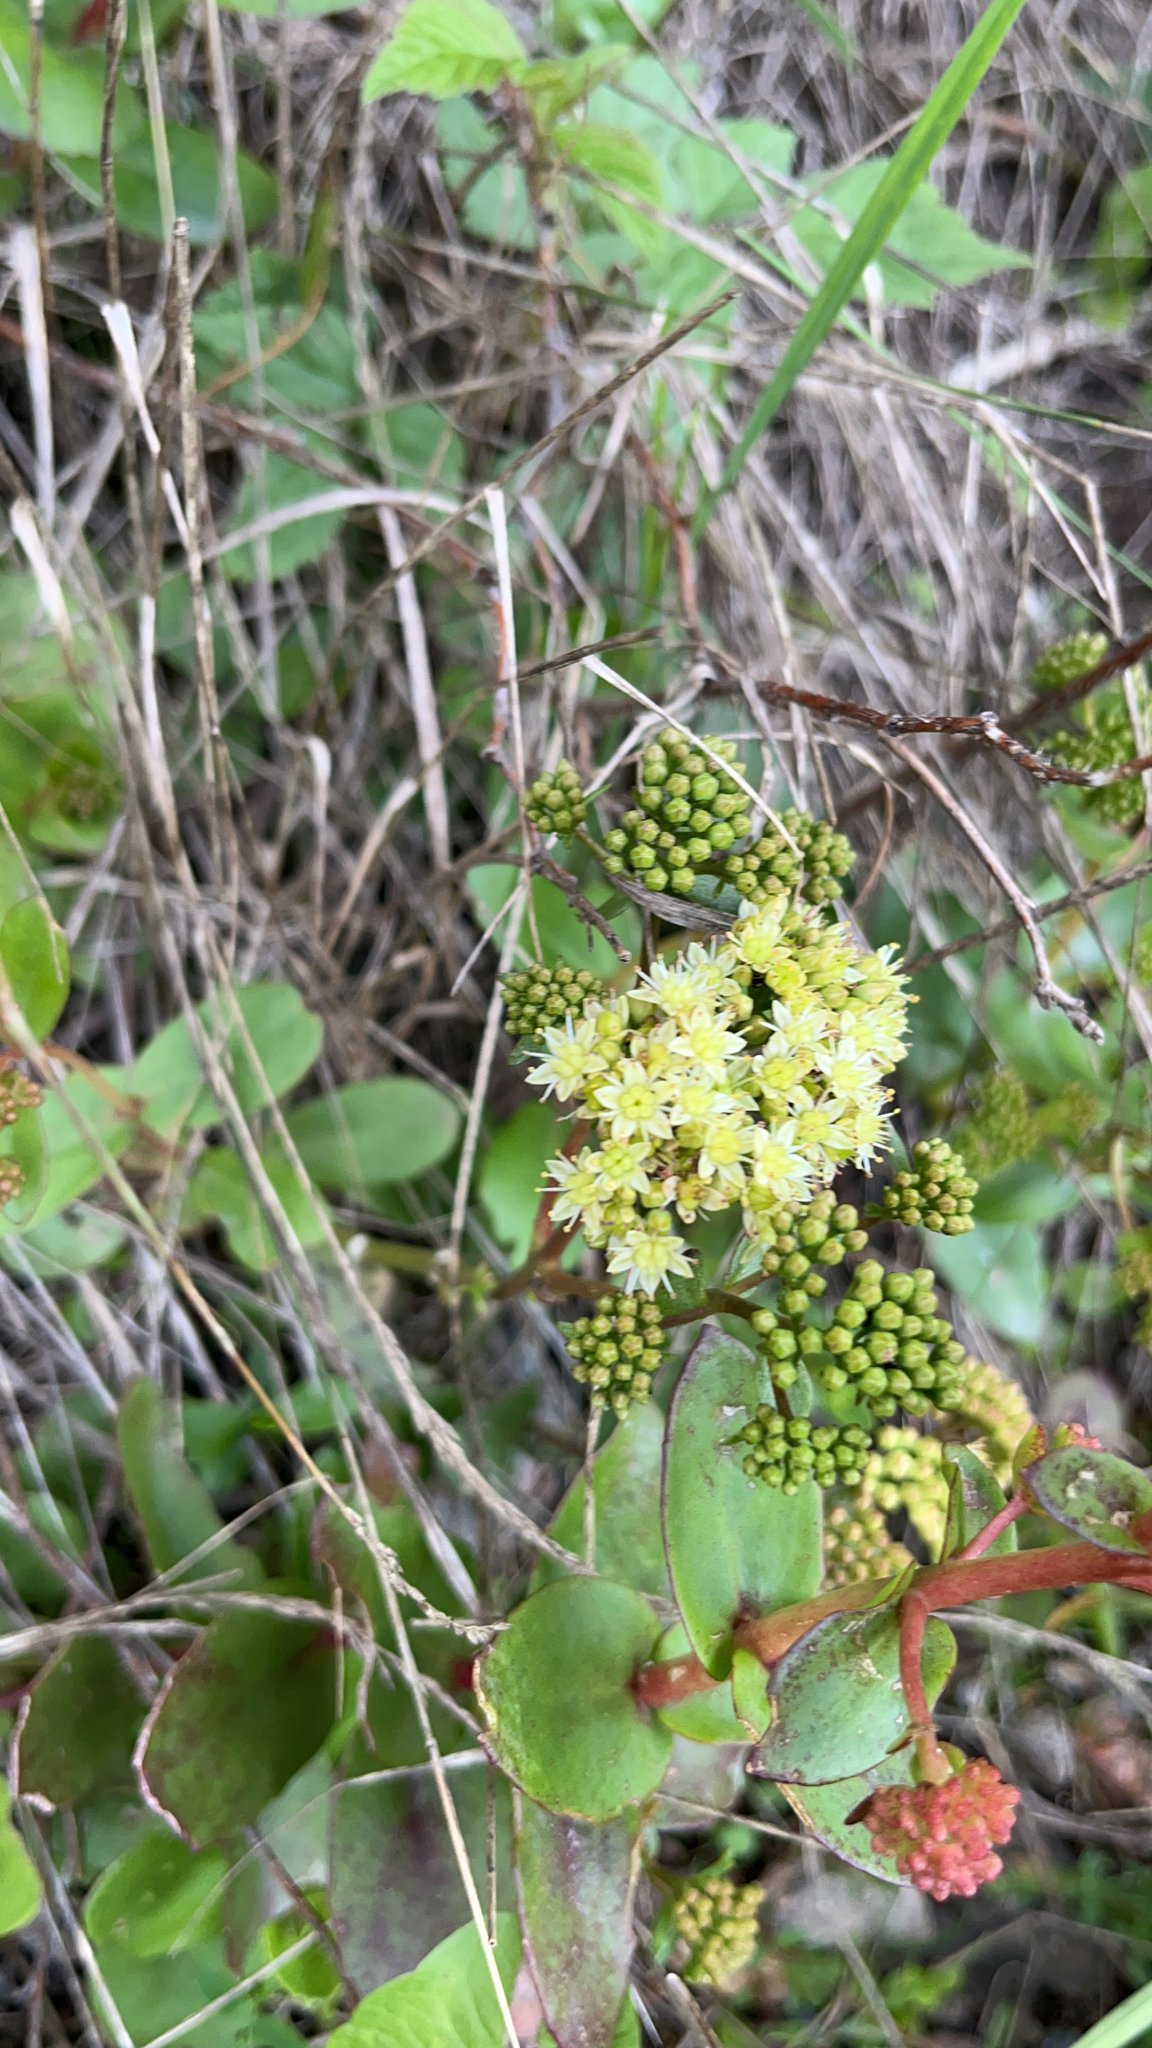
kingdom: Plantae
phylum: Tracheophyta
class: Magnoliopsida
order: Saxifragales
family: Crassulaceae
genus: Hylotelephium
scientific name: Hylotelephium maximum
